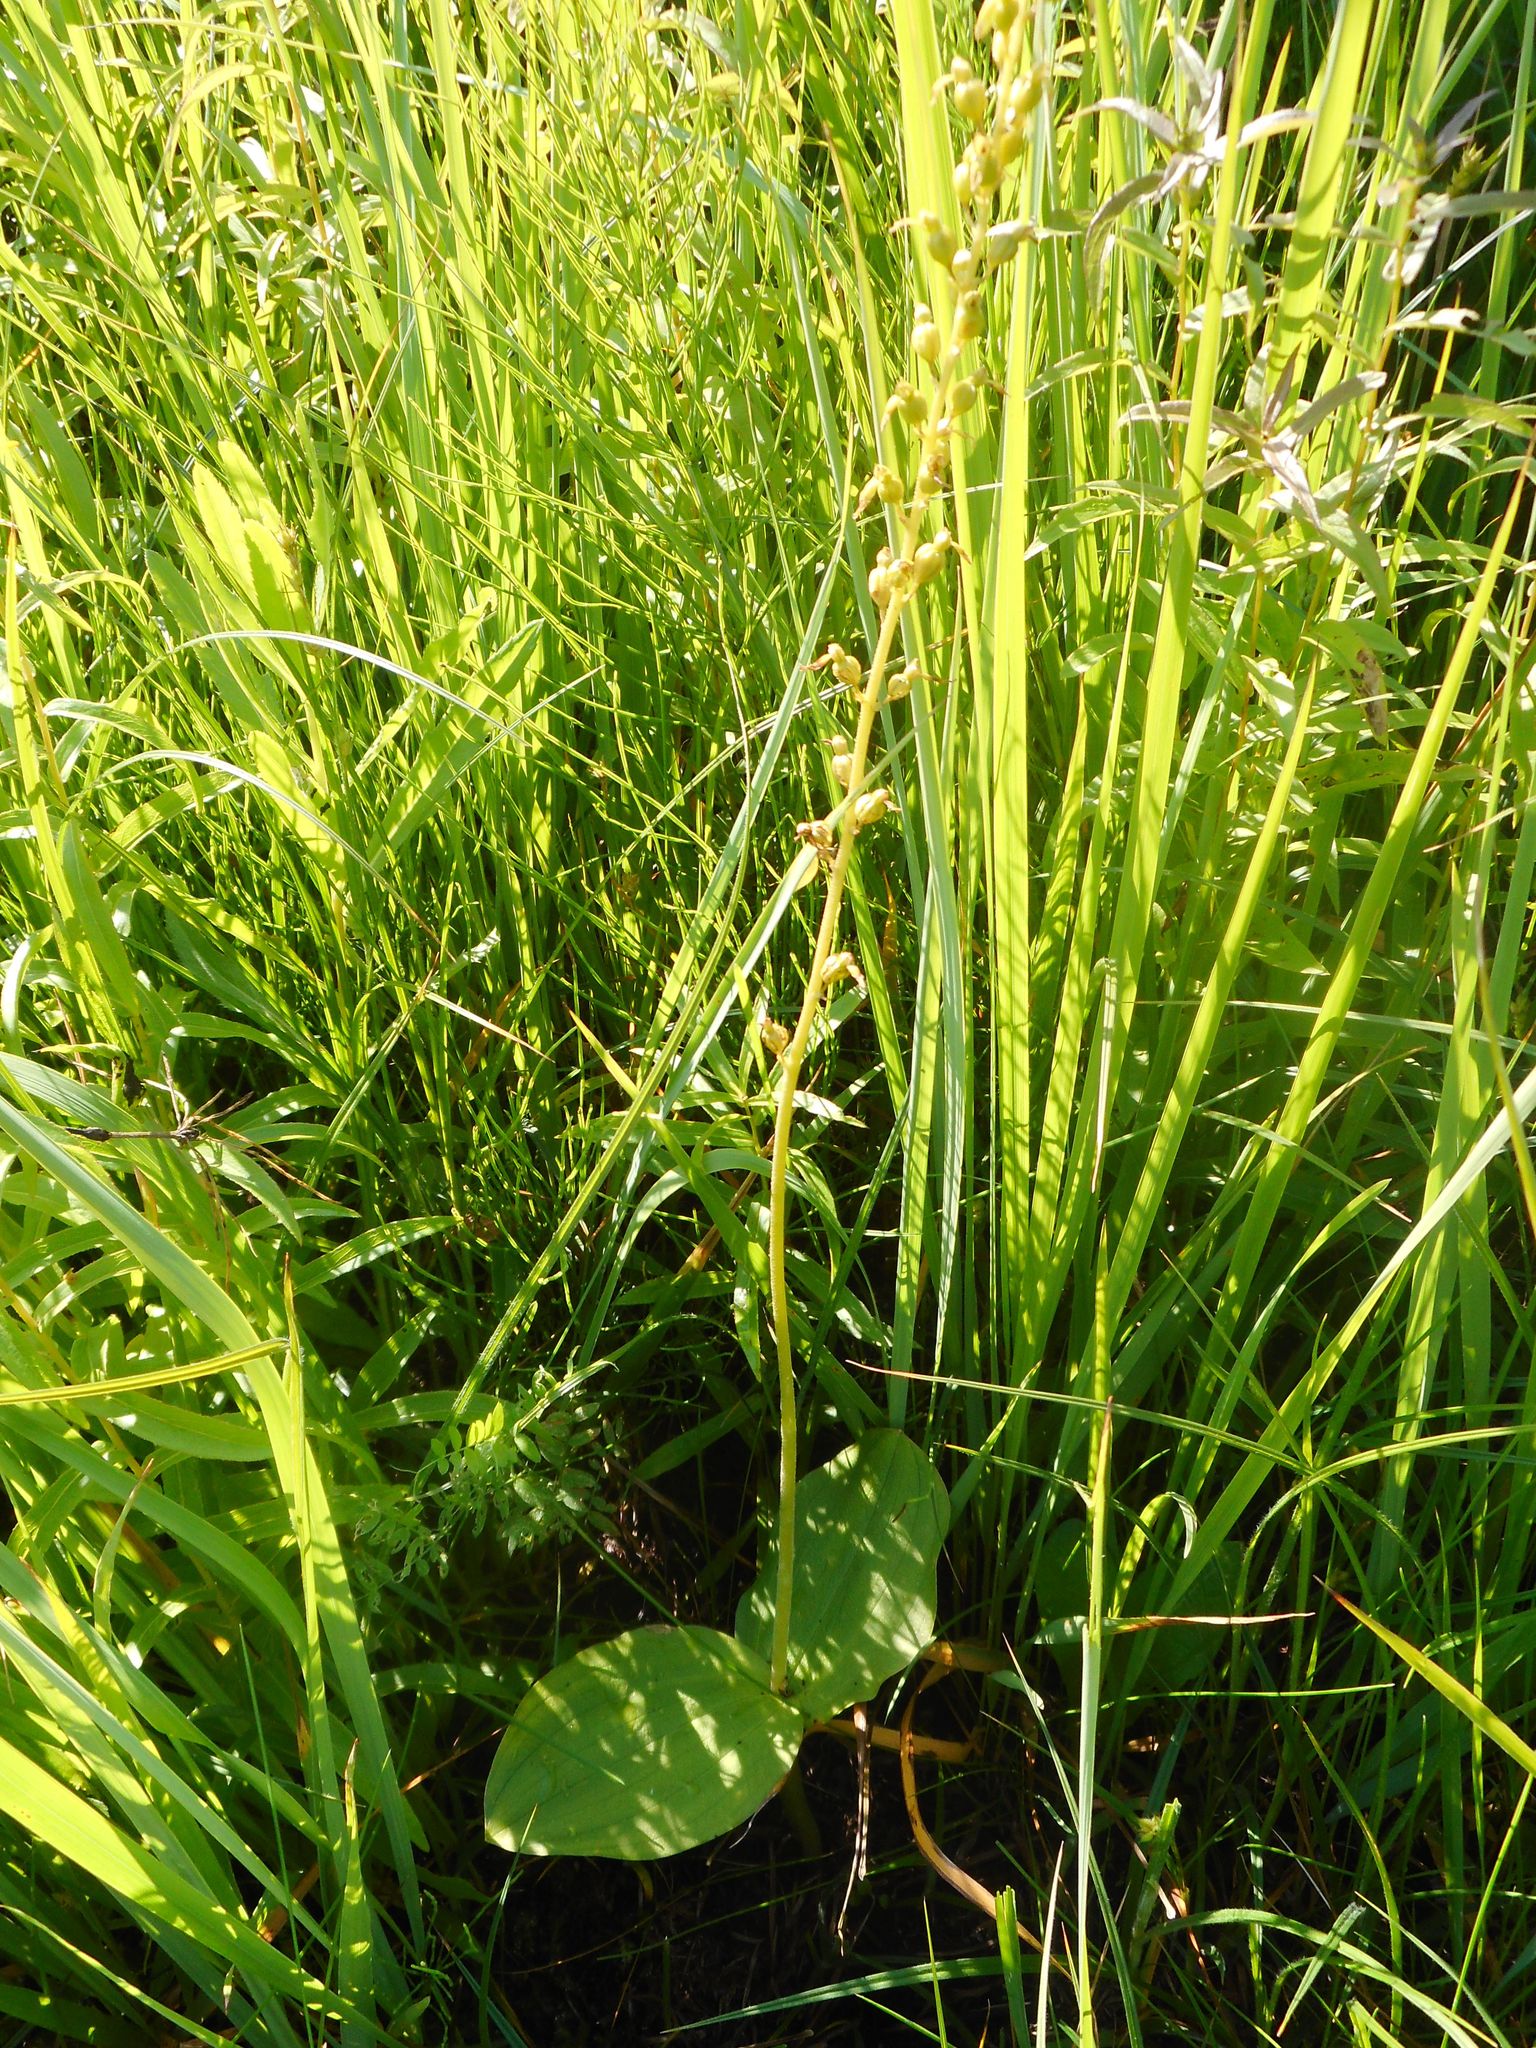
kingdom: Plantae
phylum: Tracheophyta
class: Liliopsida
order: Asparagales
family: Orchidaceae
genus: Neottia
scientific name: Neottia ovata
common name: Common twayblade
